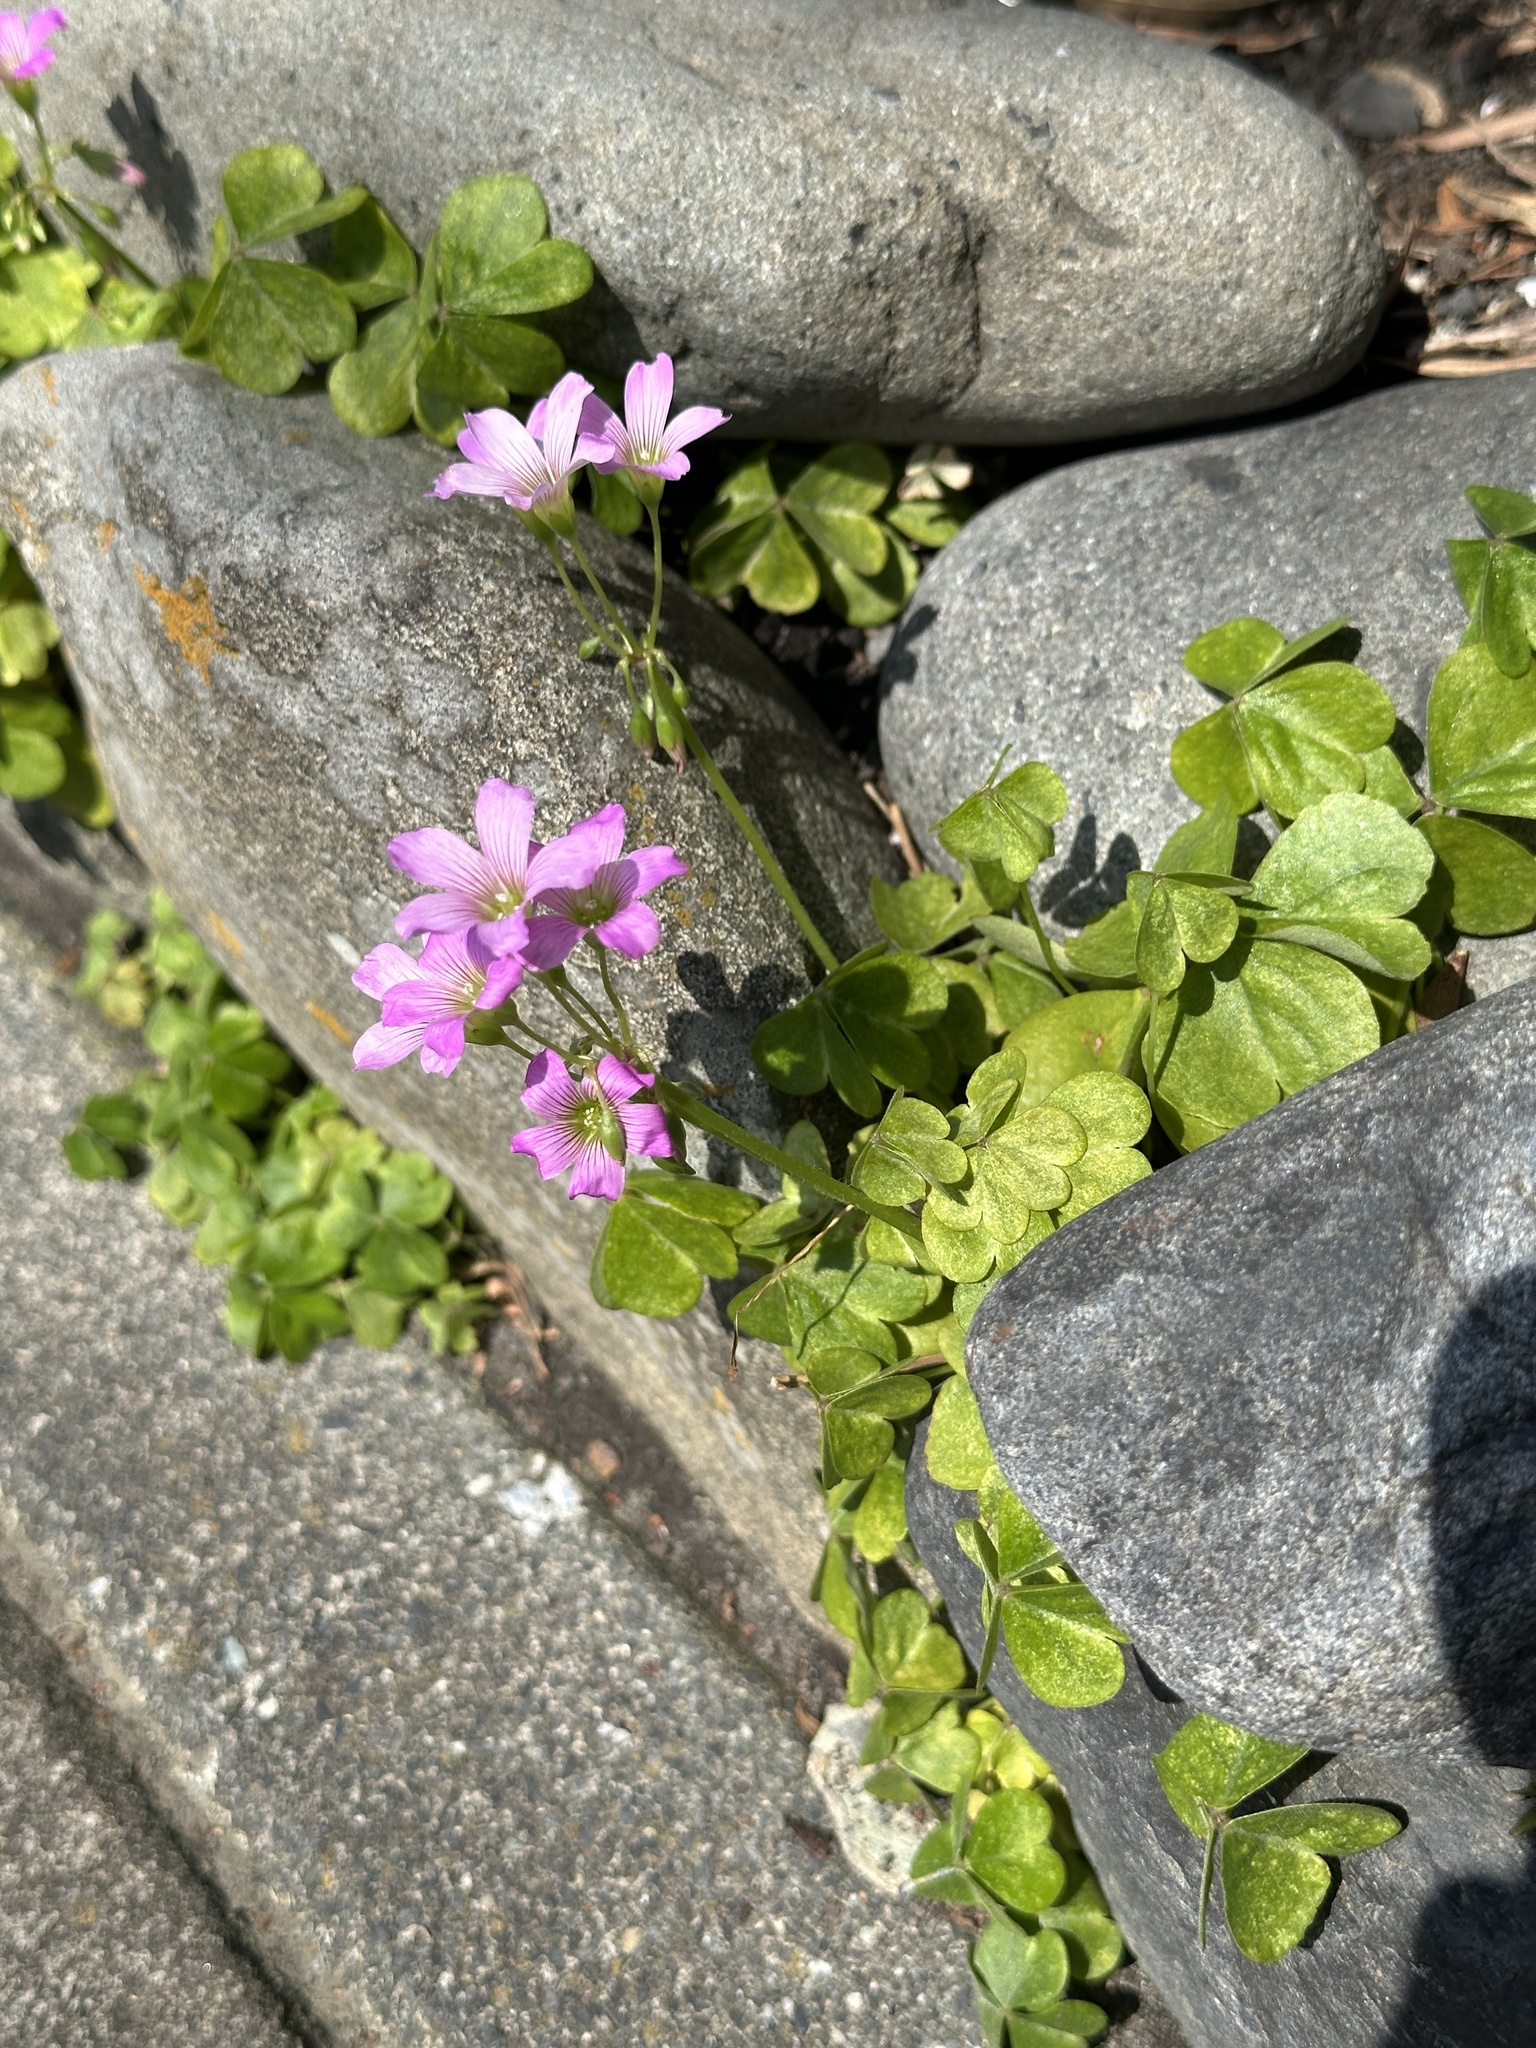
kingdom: Plantae
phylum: Tracheophyta
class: Magnoliopsida
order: Oxalidales
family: Oxalidaceae
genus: Oxalis
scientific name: Oxalis debilis
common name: Large-flowered pink-sorrel
